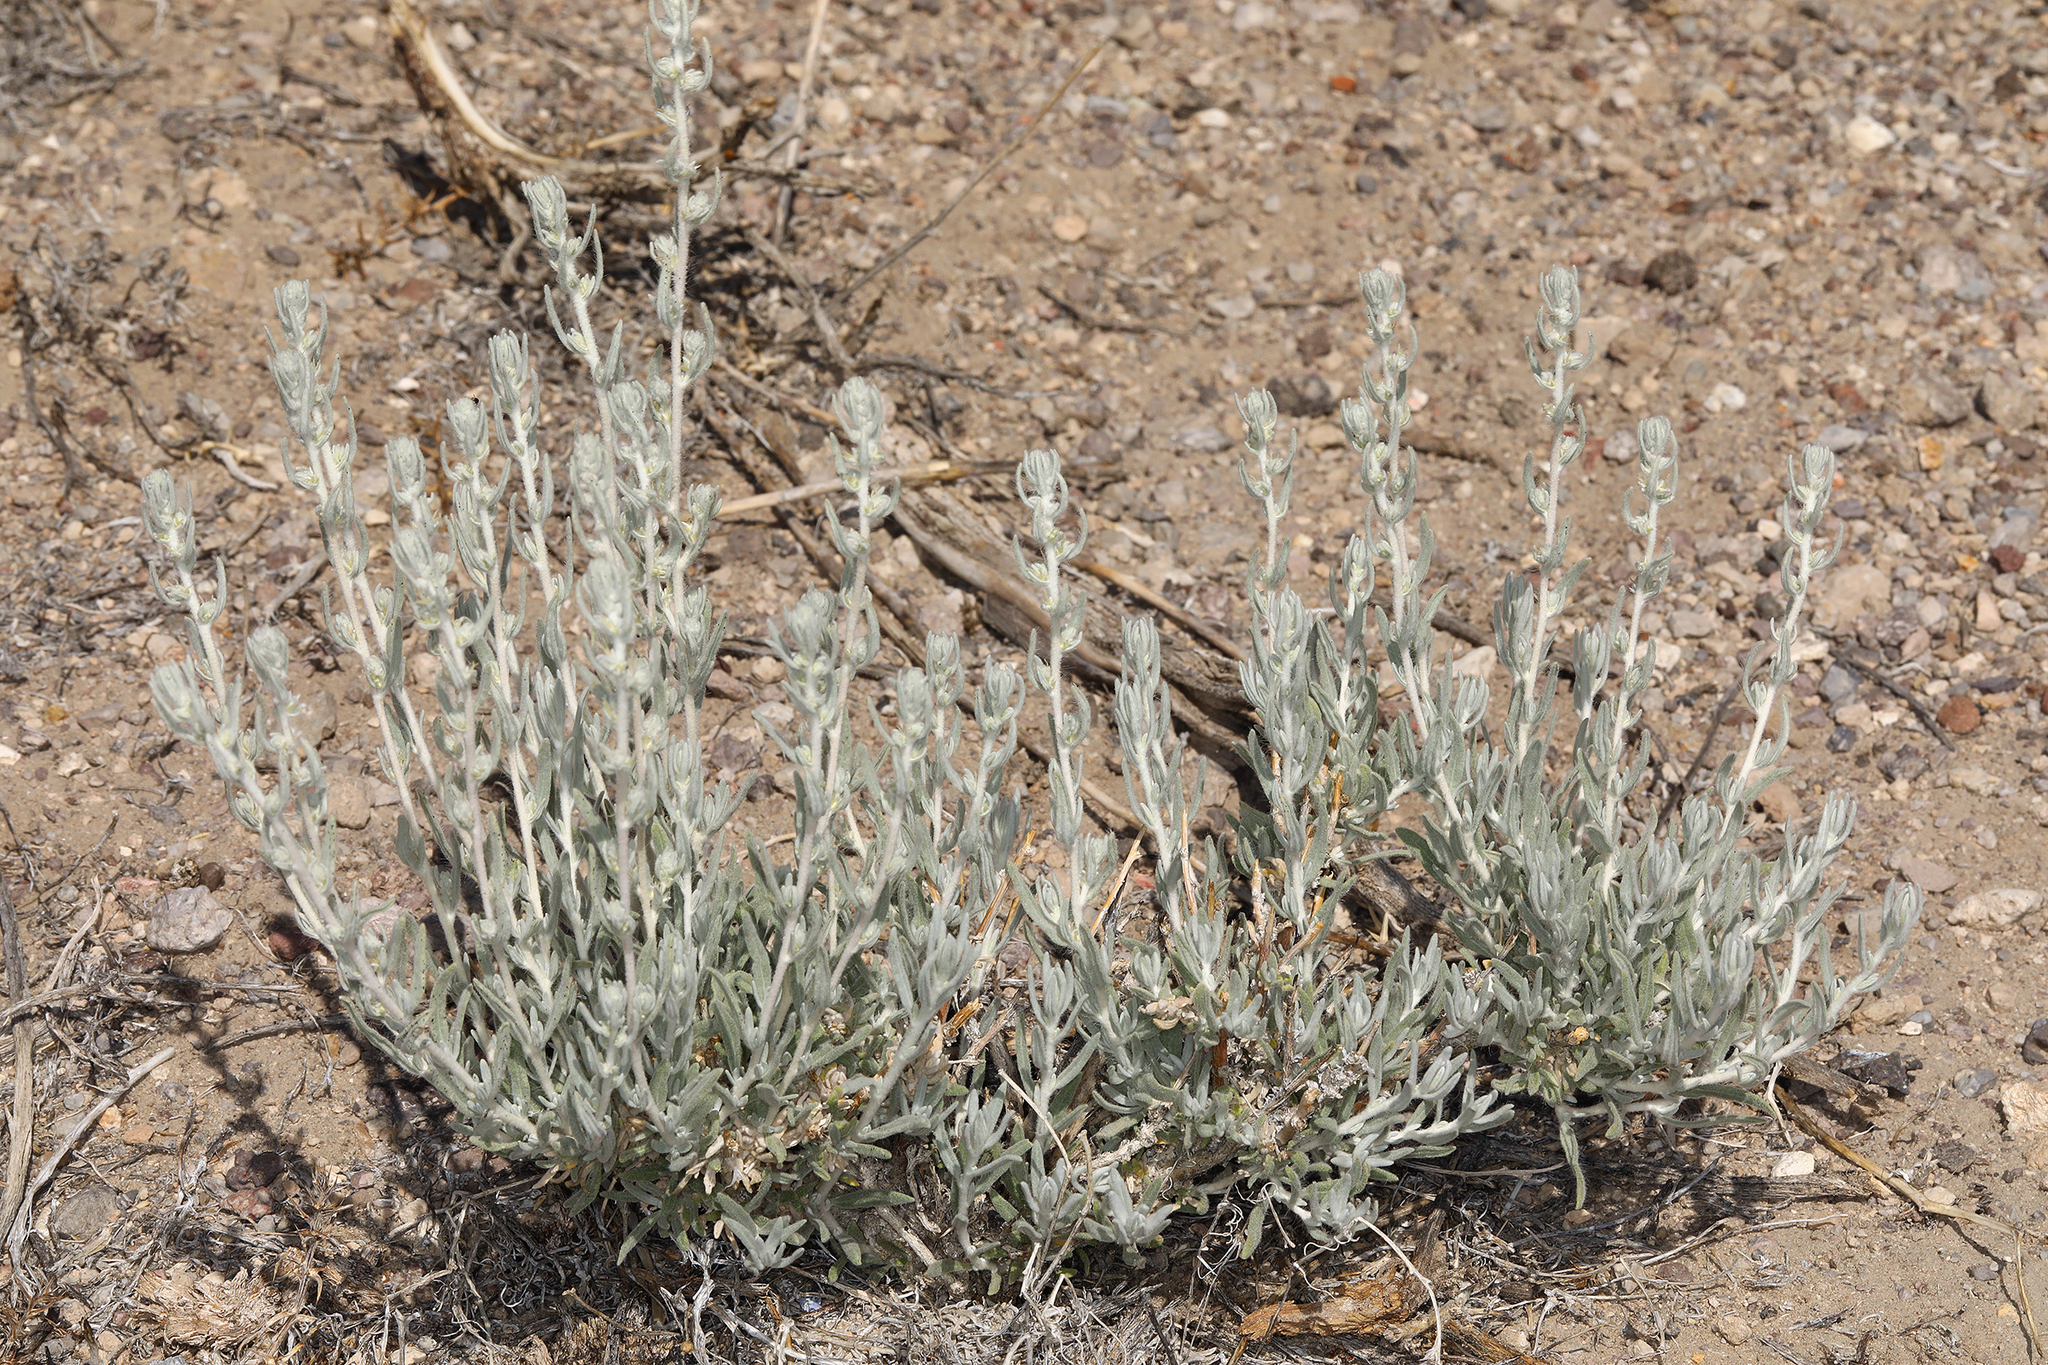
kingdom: Plantae
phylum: Tracheophyta
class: Magnoliopsida
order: Caryophyllales
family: Amaranthaceae
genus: Krascheninnikovia
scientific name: Krascheninnikovia lanata
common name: Winterfat
